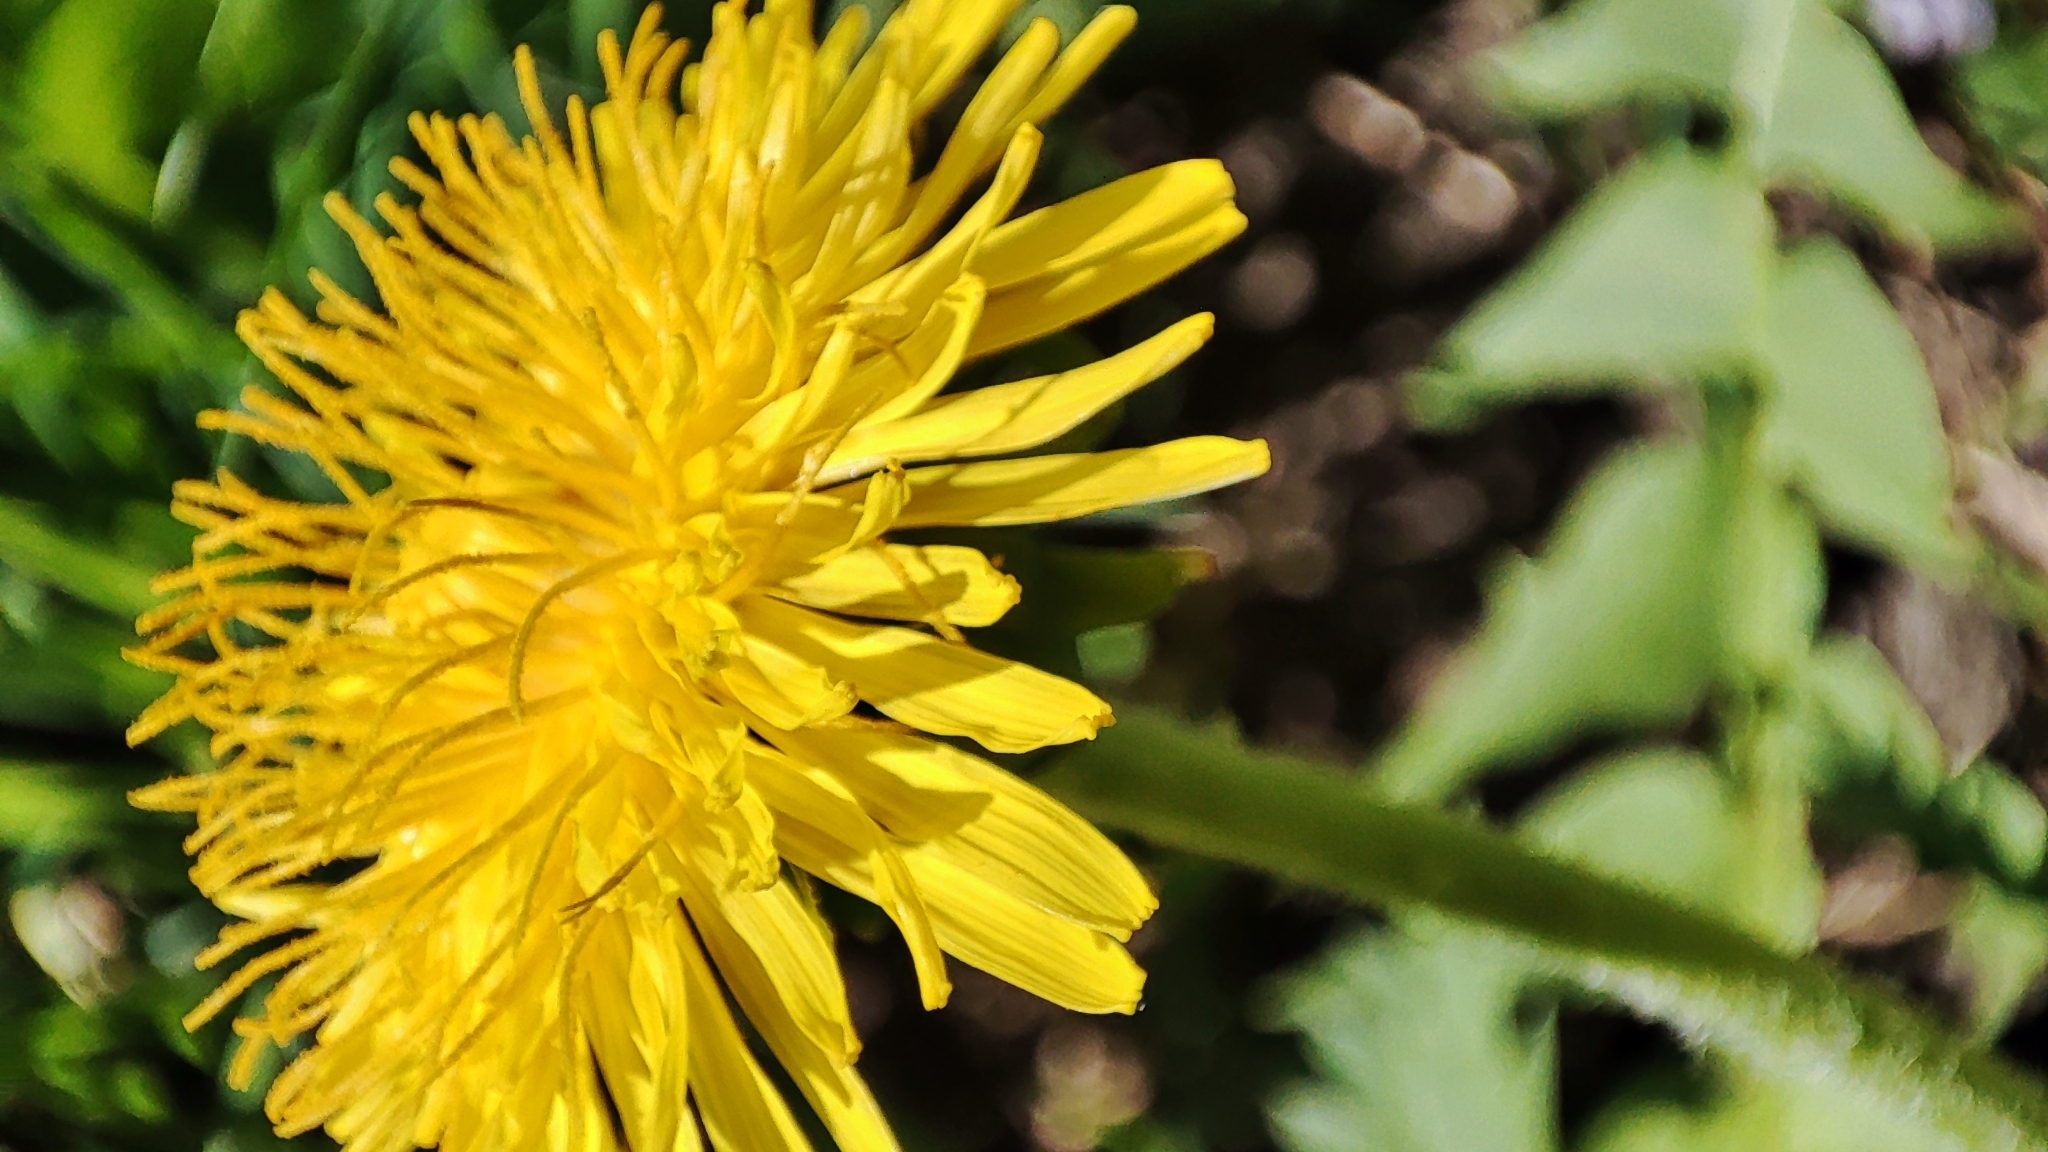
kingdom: Plantae
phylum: Tracheophyta
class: Magnoliopsida
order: Asterales
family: Asteraceae
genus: Taraxacum
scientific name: Taraxacum officinale
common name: Common dandelion
